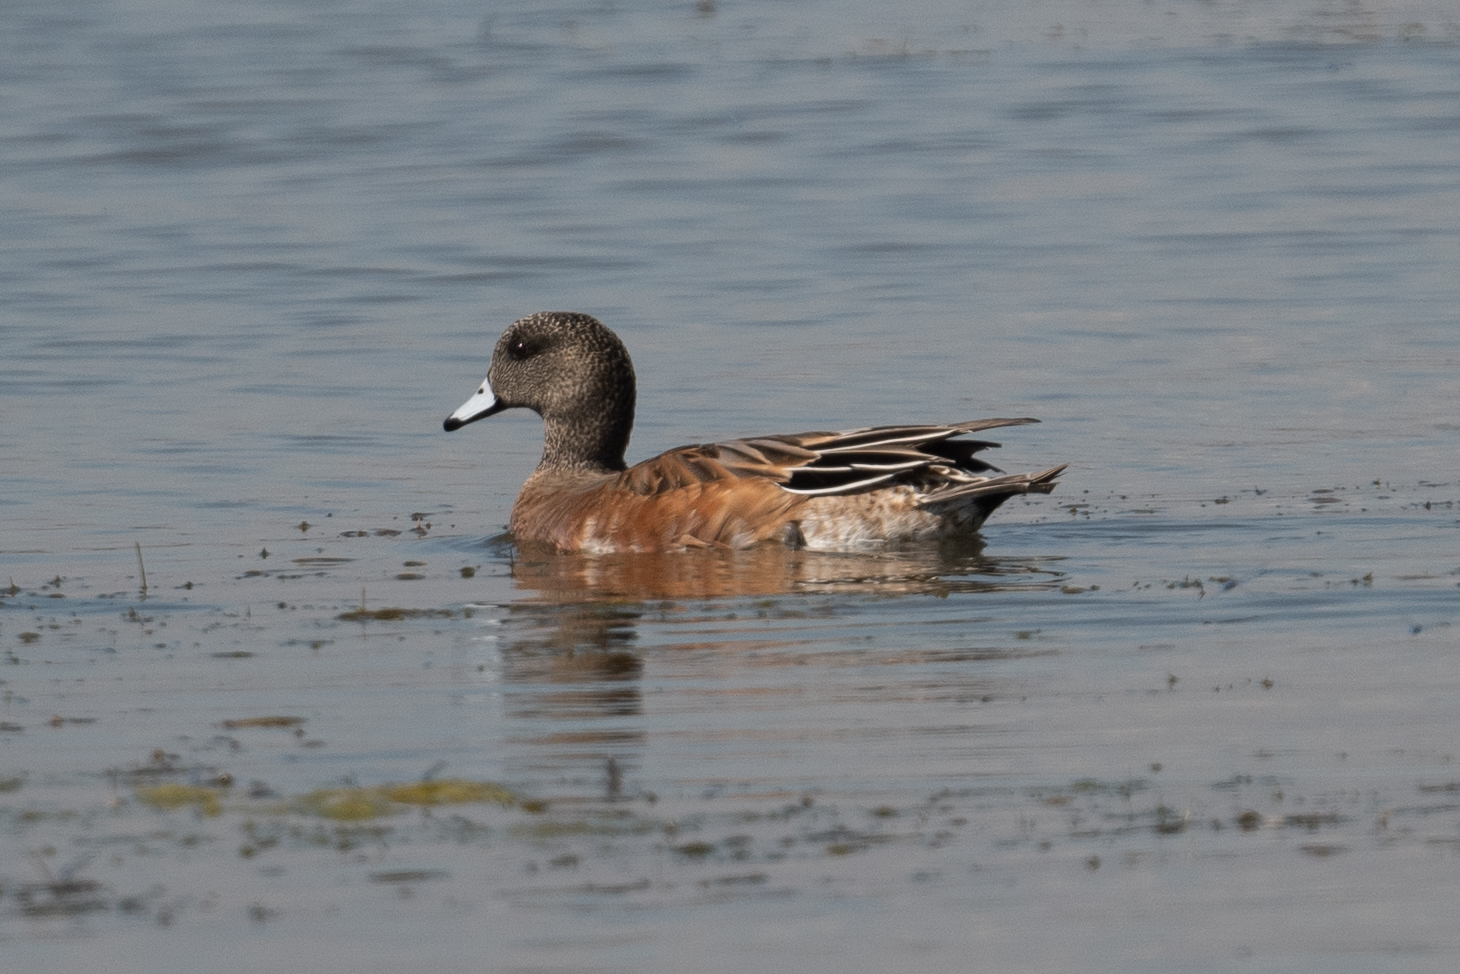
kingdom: Animalia
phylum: Chordata
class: Aves
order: Anseriformes
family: Anatidae
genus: Mareca
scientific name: Mareca americana
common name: American wigeon
